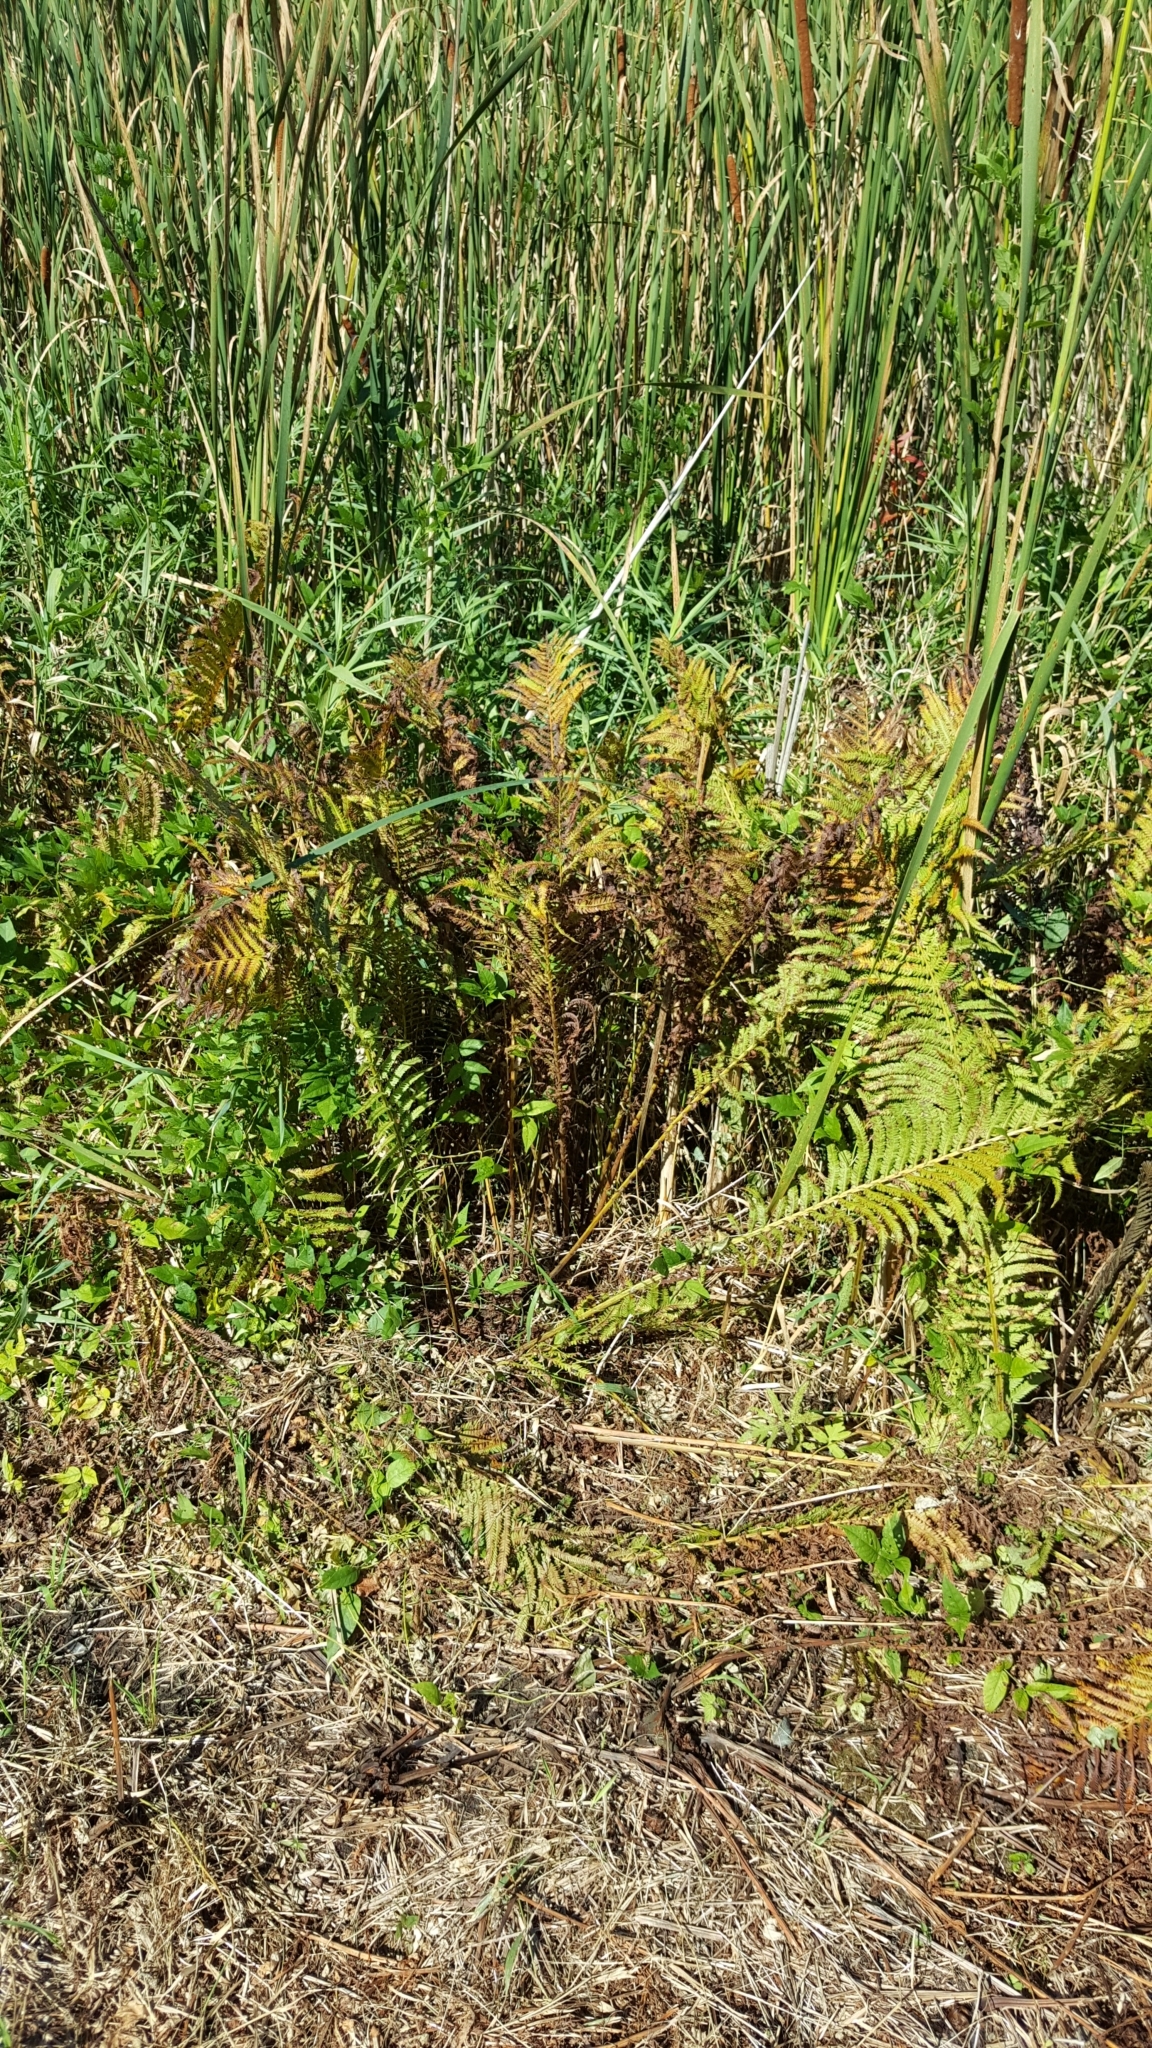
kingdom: Plantae
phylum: Tracheophyta
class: Polypodiopsida
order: Polypodiales
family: Onocleaceae
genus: Matteuccia
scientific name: Matteuccia struthiopteris
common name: Ostrich fern
